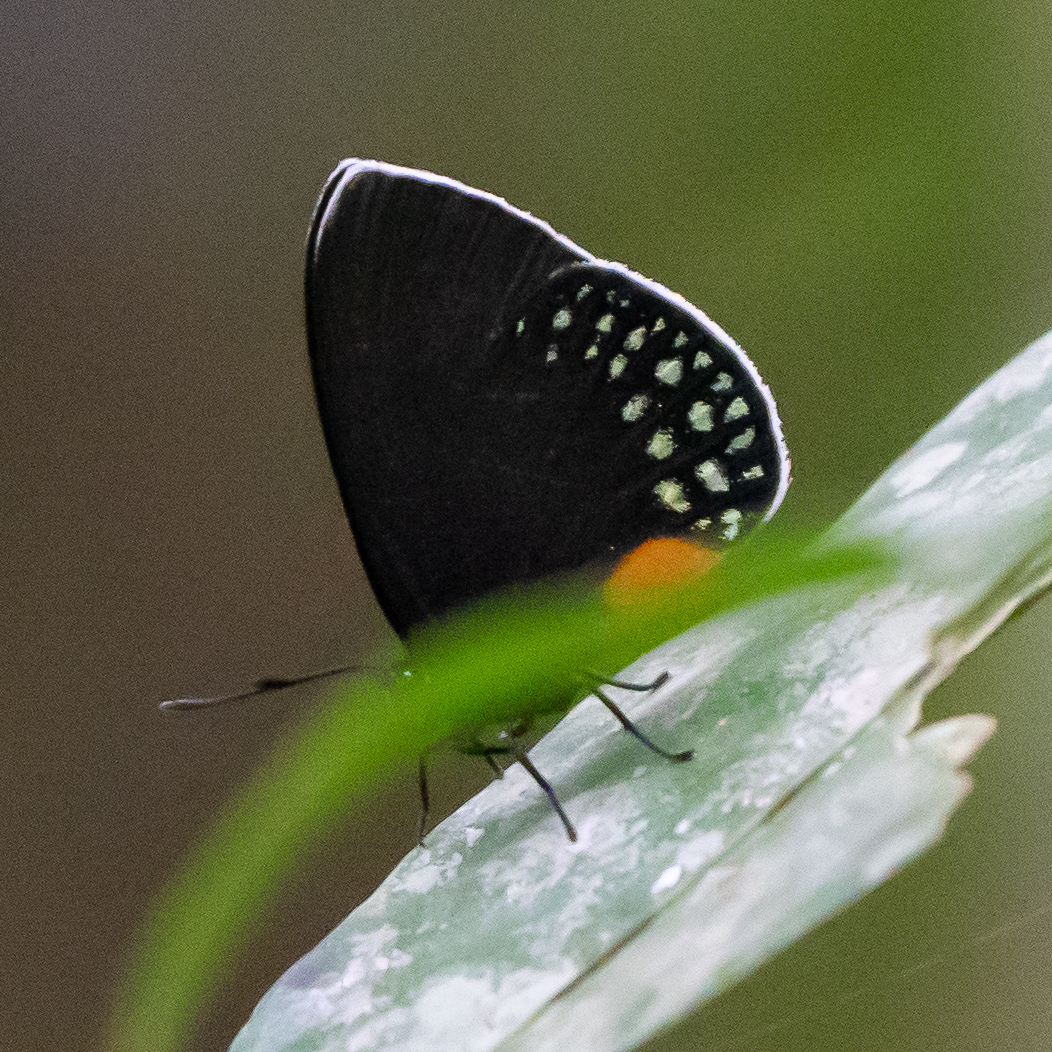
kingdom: Animalia
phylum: Arthropoda
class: Insecta
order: Lepidoptera
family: Lycaenidae
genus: Eumaeus
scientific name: Eumaeus godartii
